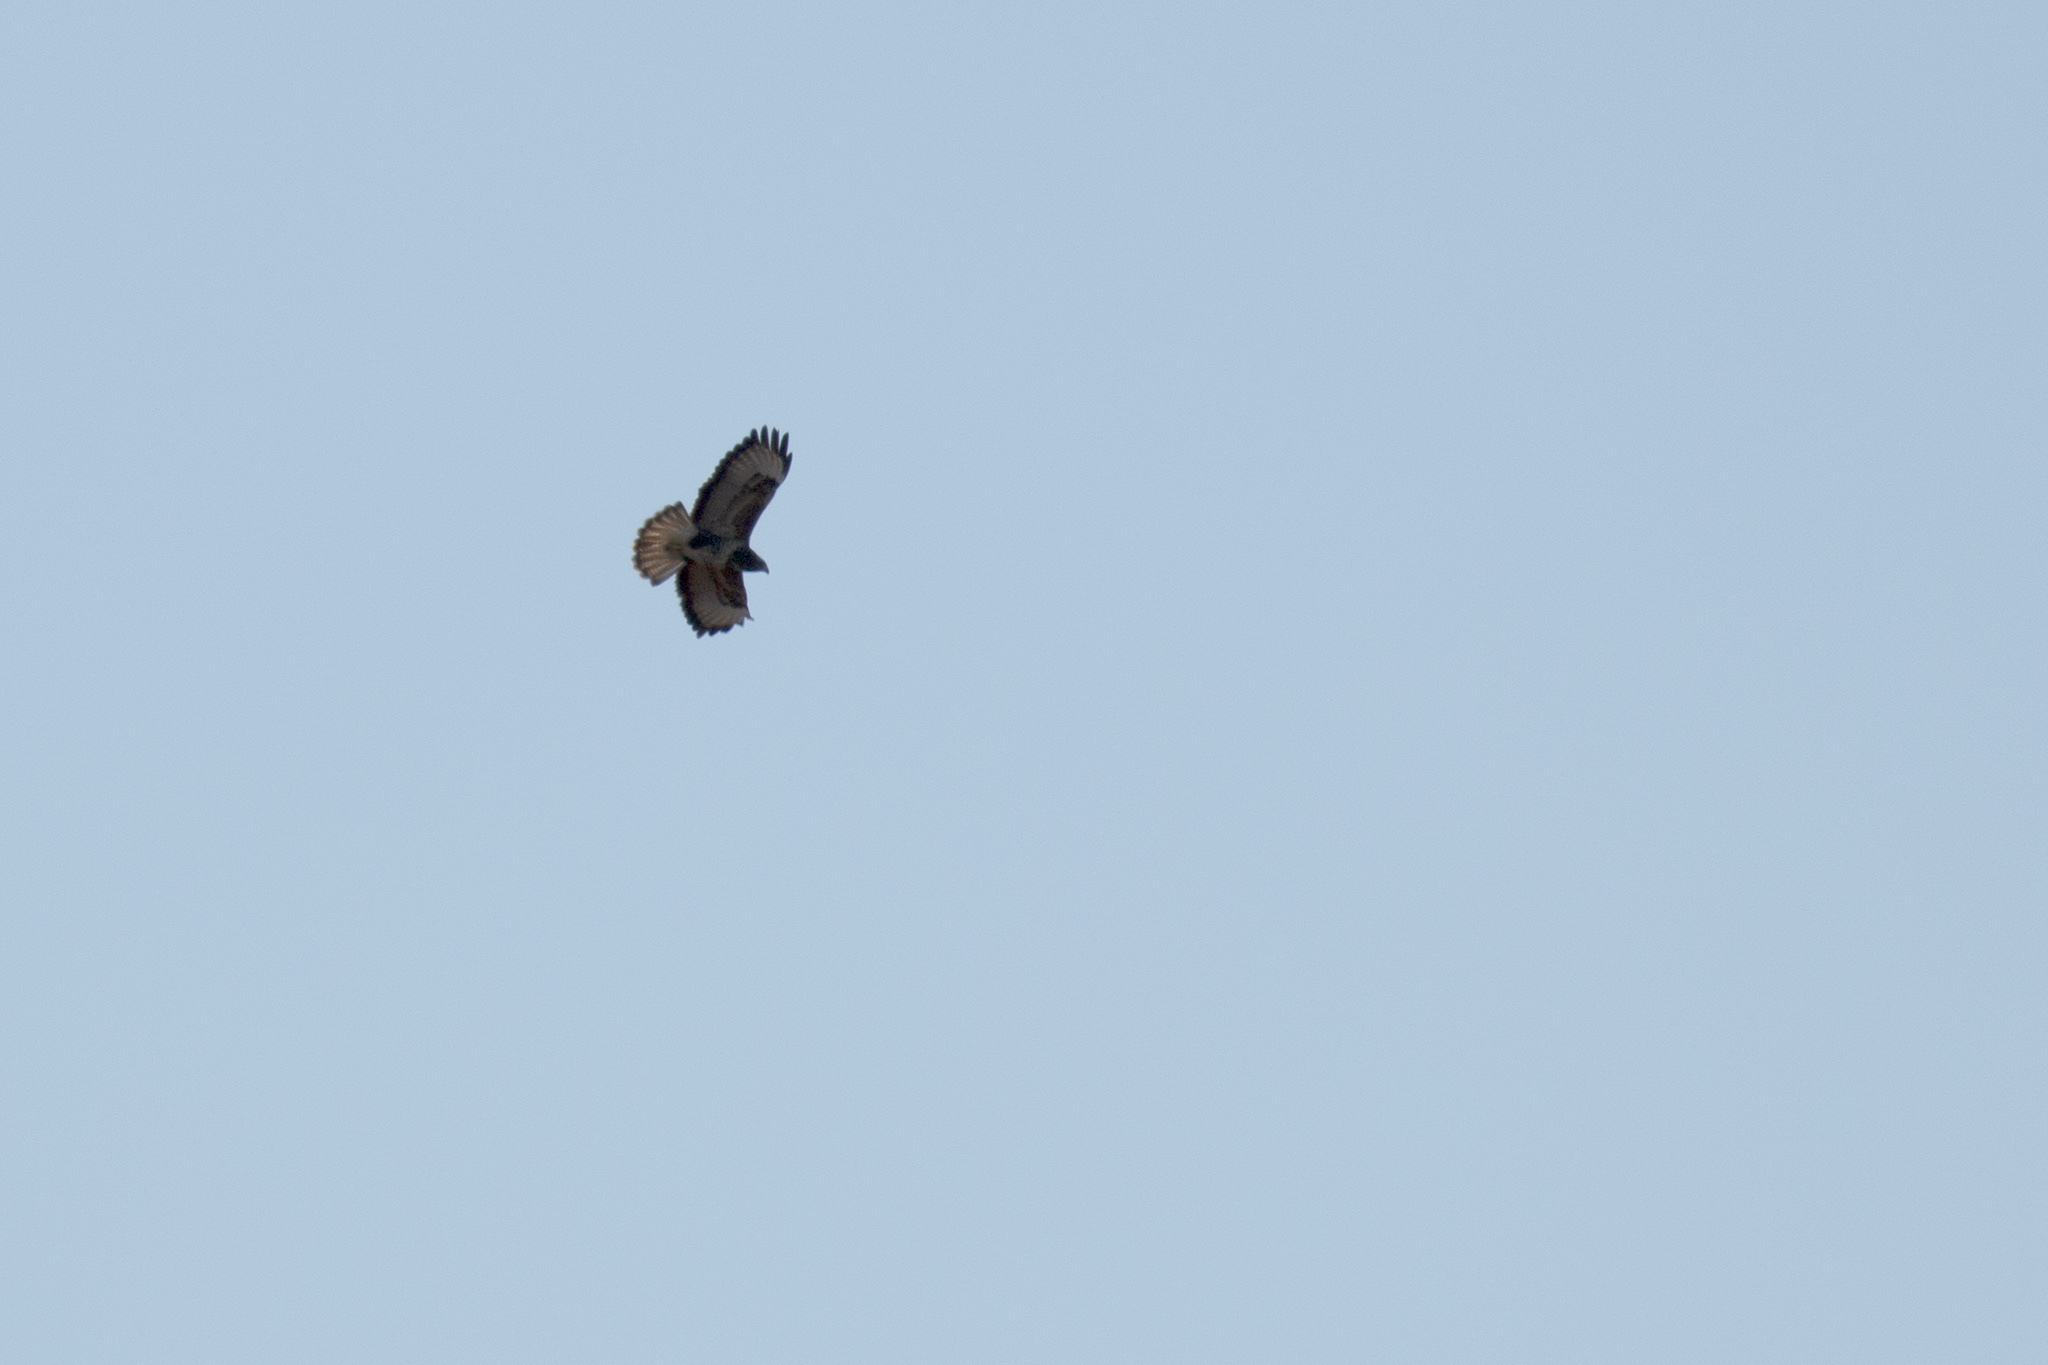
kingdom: Animalia
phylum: Chordata
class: Aves
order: Accipitriformes
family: Accipitridae
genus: Buteo
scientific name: Buteo buteo
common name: Common buzzard
